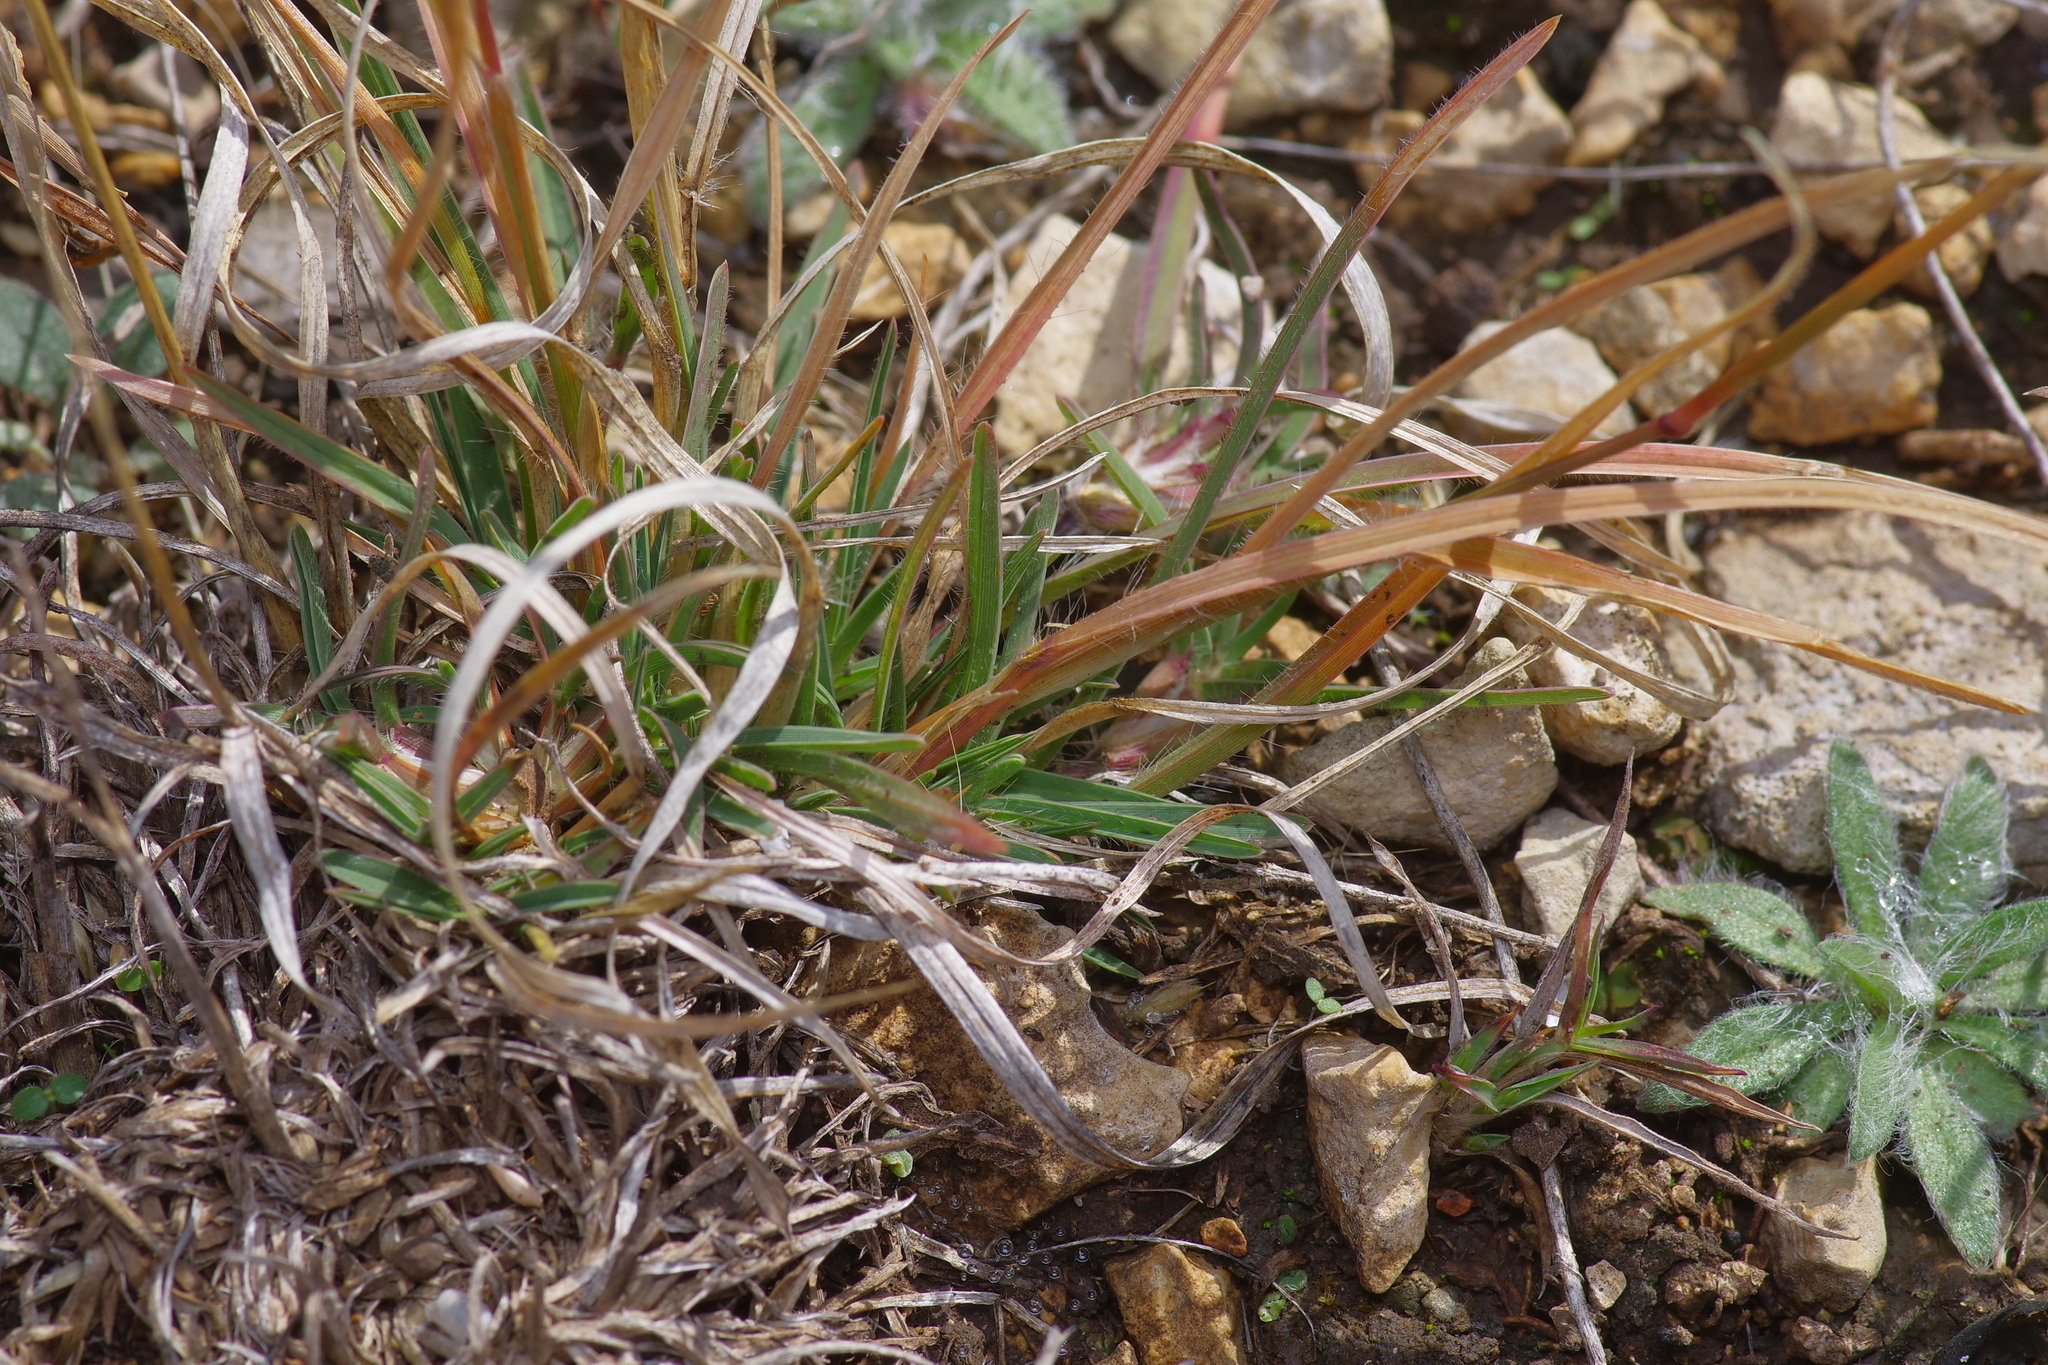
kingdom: Plantae
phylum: Tracheophyta
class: Liliopsida
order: Poales
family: Poaceae
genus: Erioneuron
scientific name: Erioneuron pilosum
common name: Hairy woolly grass
